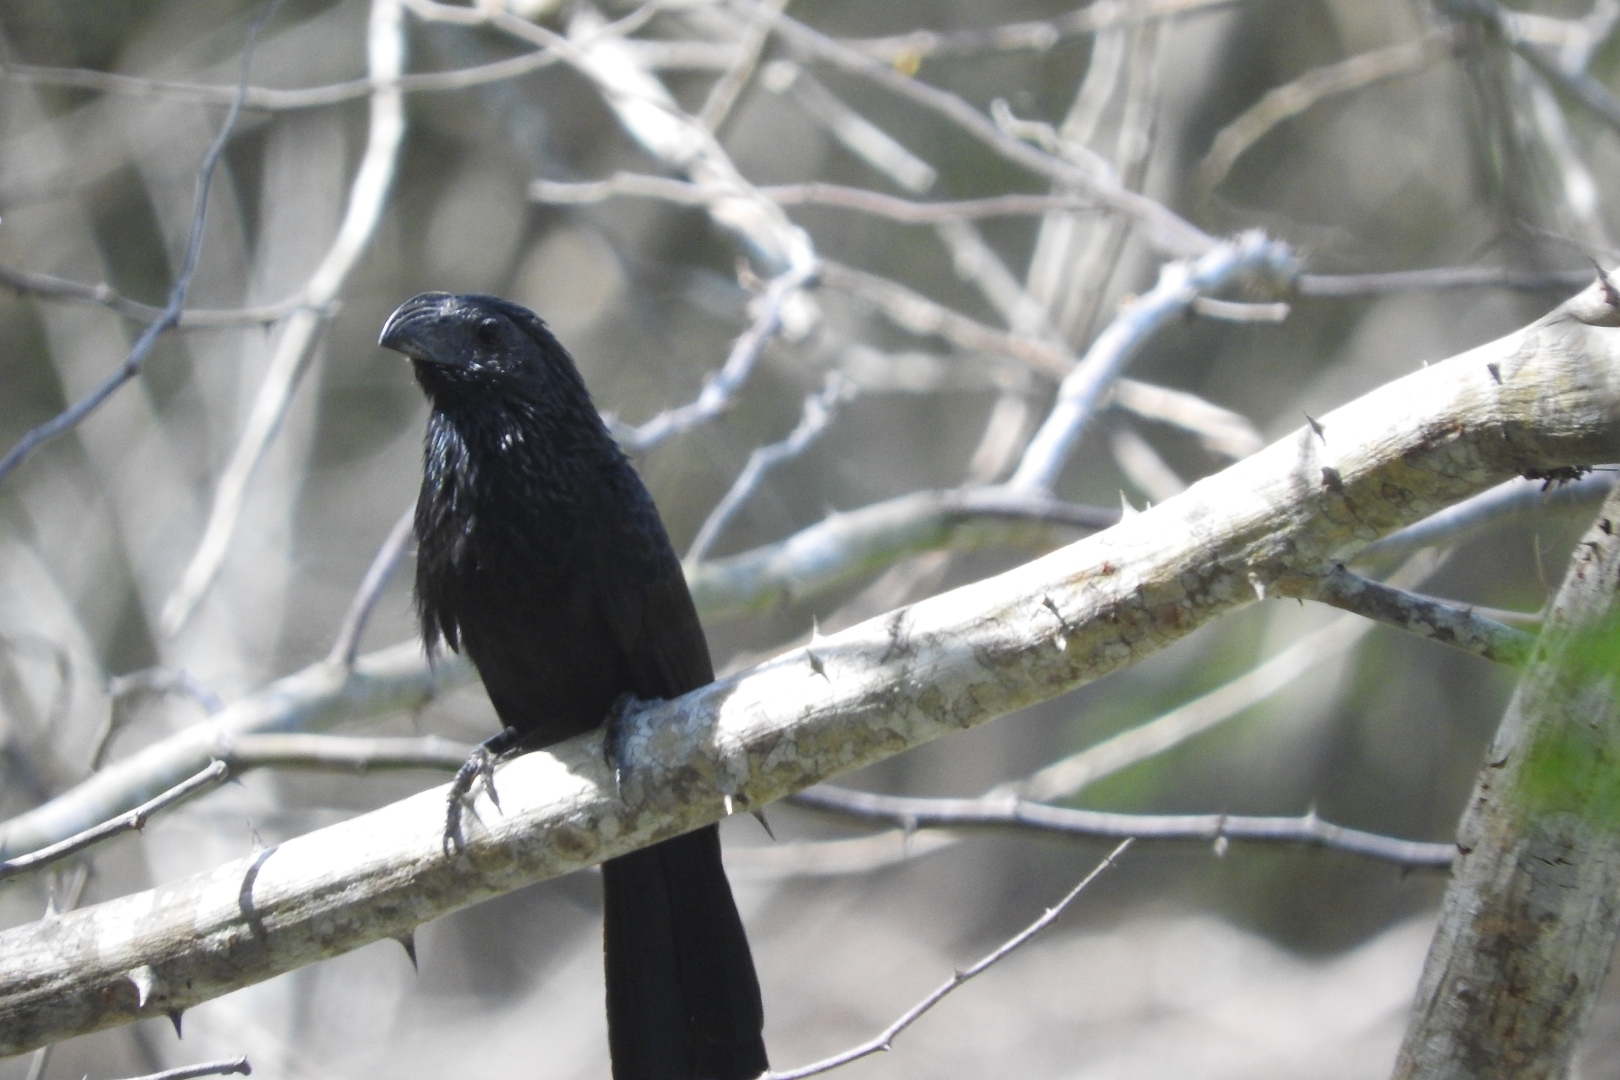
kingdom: Animalia
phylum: Chordata
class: Aves
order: Cuculiformes
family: Cuculidae
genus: Crotophaga
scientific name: Crotophaga sulcirostris
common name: Groove-billed ani
